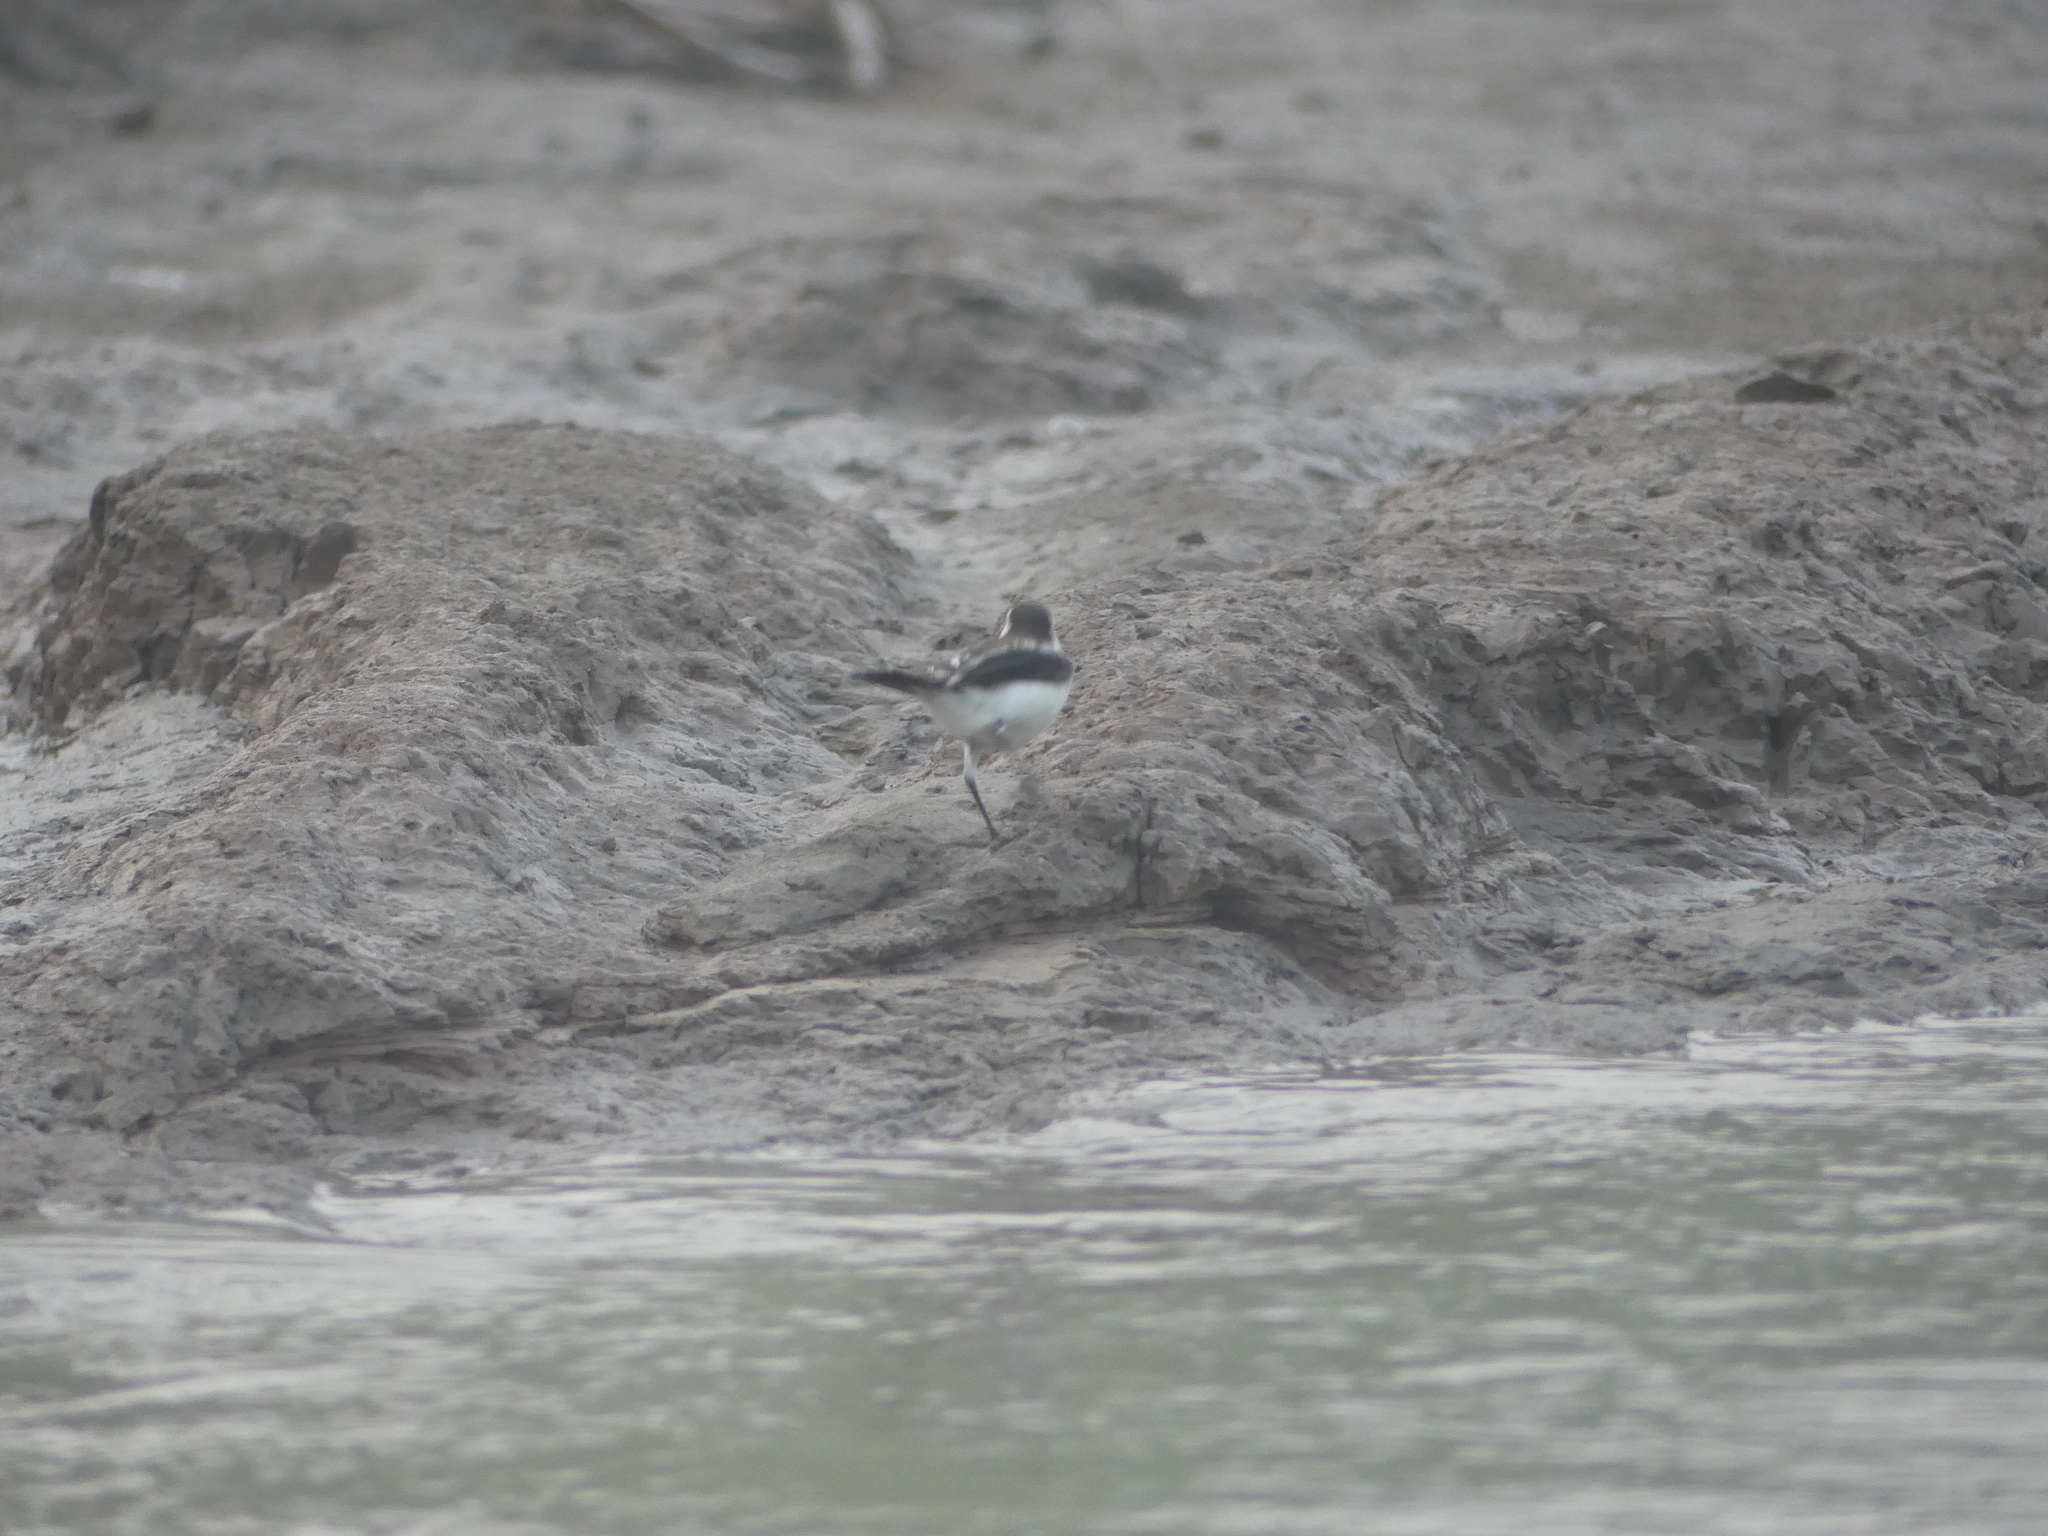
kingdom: Animalia
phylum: Chordata
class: Aves
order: Passeriformes
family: Tyrannidae
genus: Fluvicola
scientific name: Fluvicola pica
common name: Pied water-tyrant
